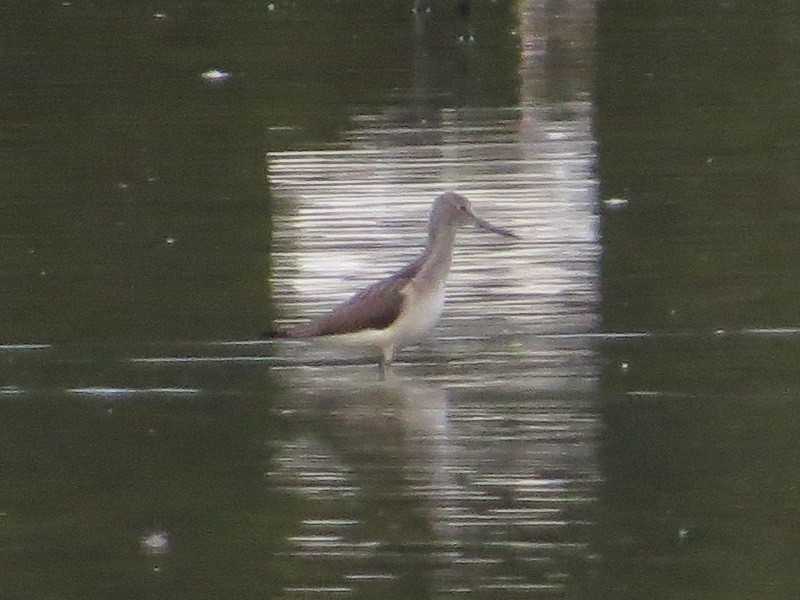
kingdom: Animalia
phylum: Chordata
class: Aves
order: Charadriiformes
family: Scolopacidae
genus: Tringa
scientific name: Tringa nebularia
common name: Common greenshank
